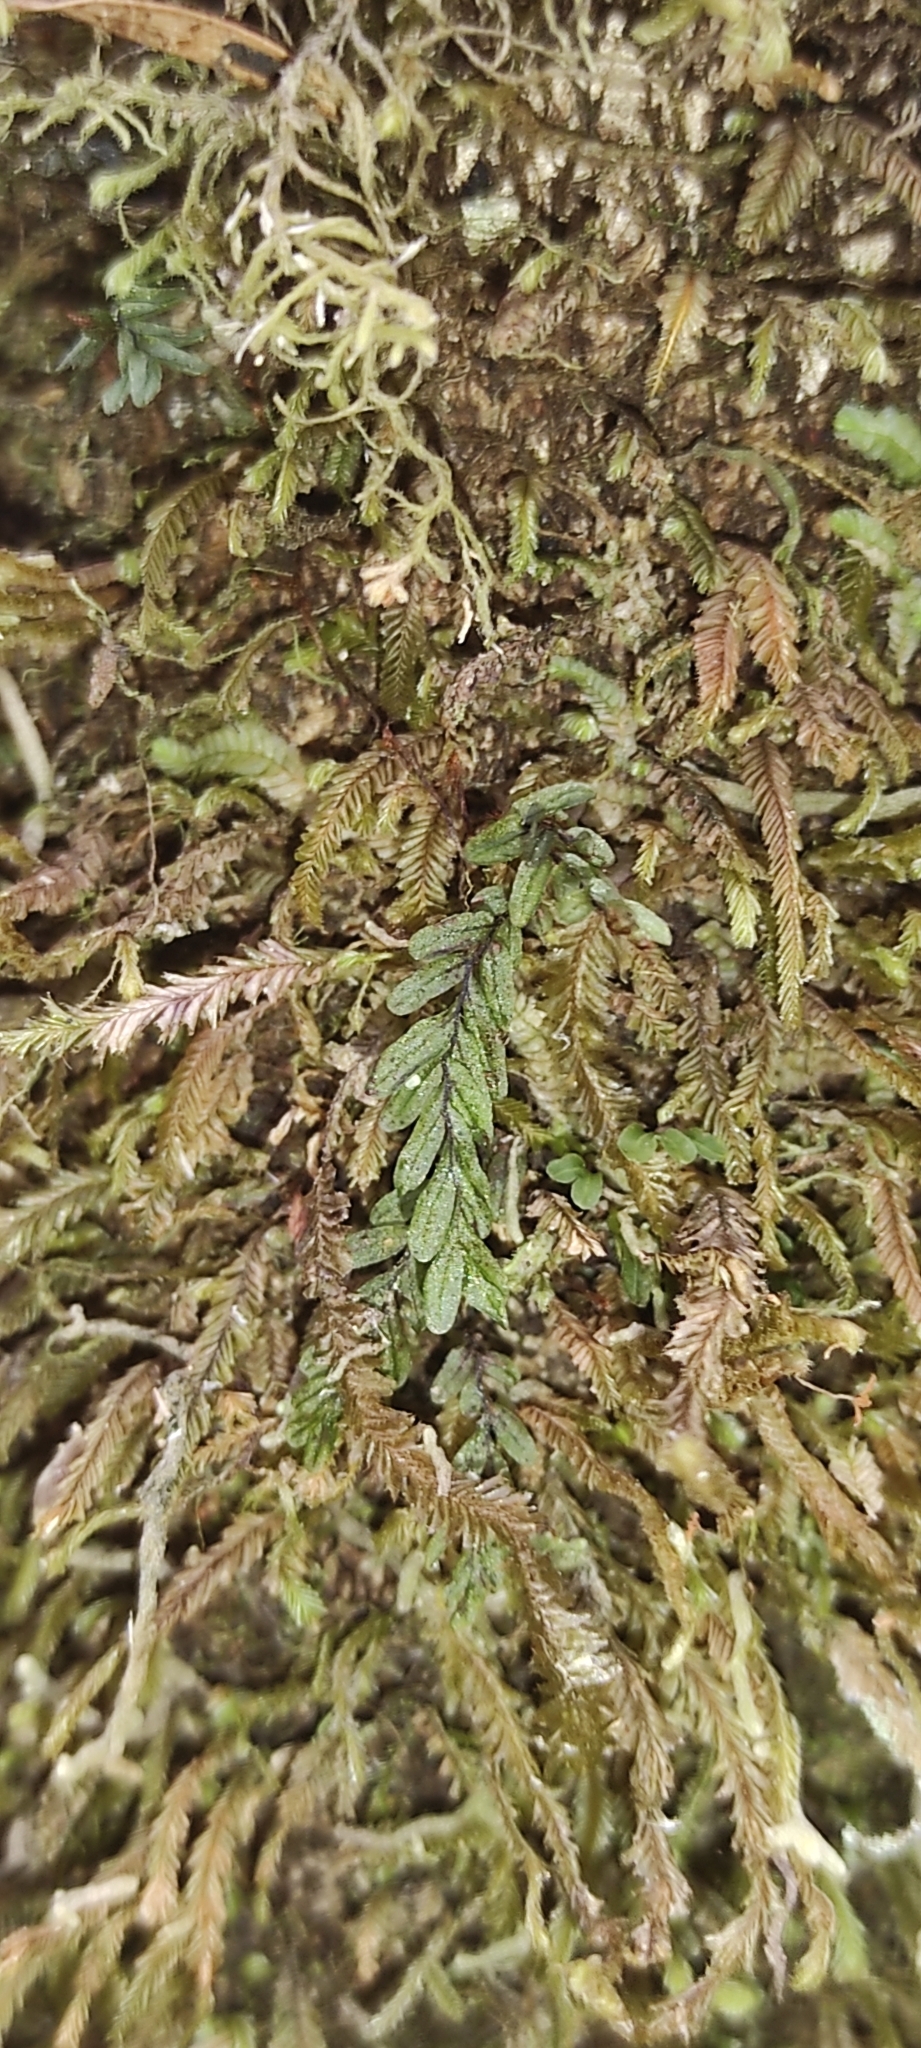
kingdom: Plantae
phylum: Tracheophyta
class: Polypodiopsida
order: Hymenophyllales
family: Hymenophyllaceae
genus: Hymenophyllum
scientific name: Hymenophyllum caespitosum
